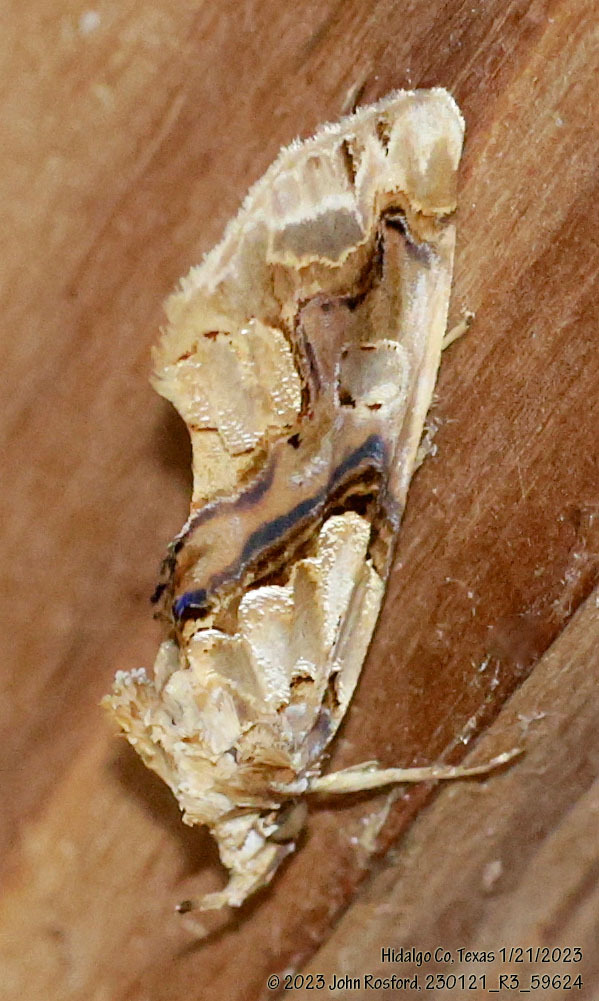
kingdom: Animalia
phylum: Arthropoda
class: Insecta
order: Lepidoptera
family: Erebidae
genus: Plusiodonta
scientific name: Plusiodonta compressipalpis
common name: Moonseed moth
